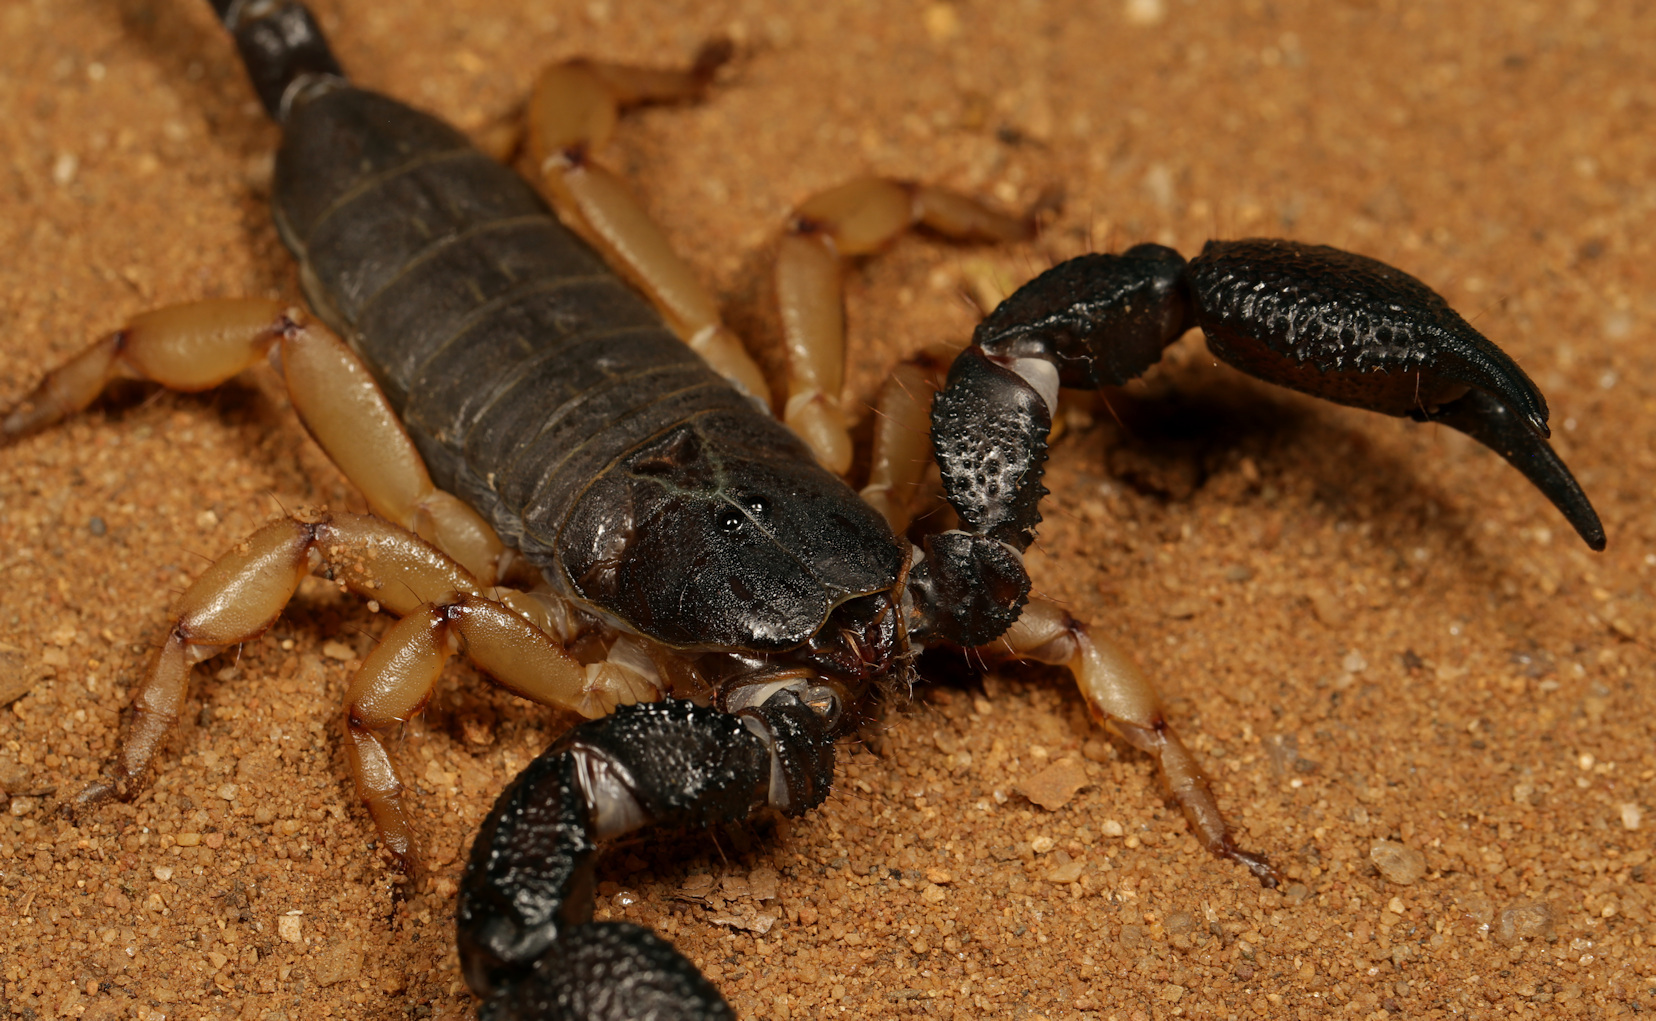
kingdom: Animalia
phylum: Arthropoda
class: Arachnida
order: Scorpiones
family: Hormuridae
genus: Opisthacanthus
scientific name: Opisthacanthus asper
